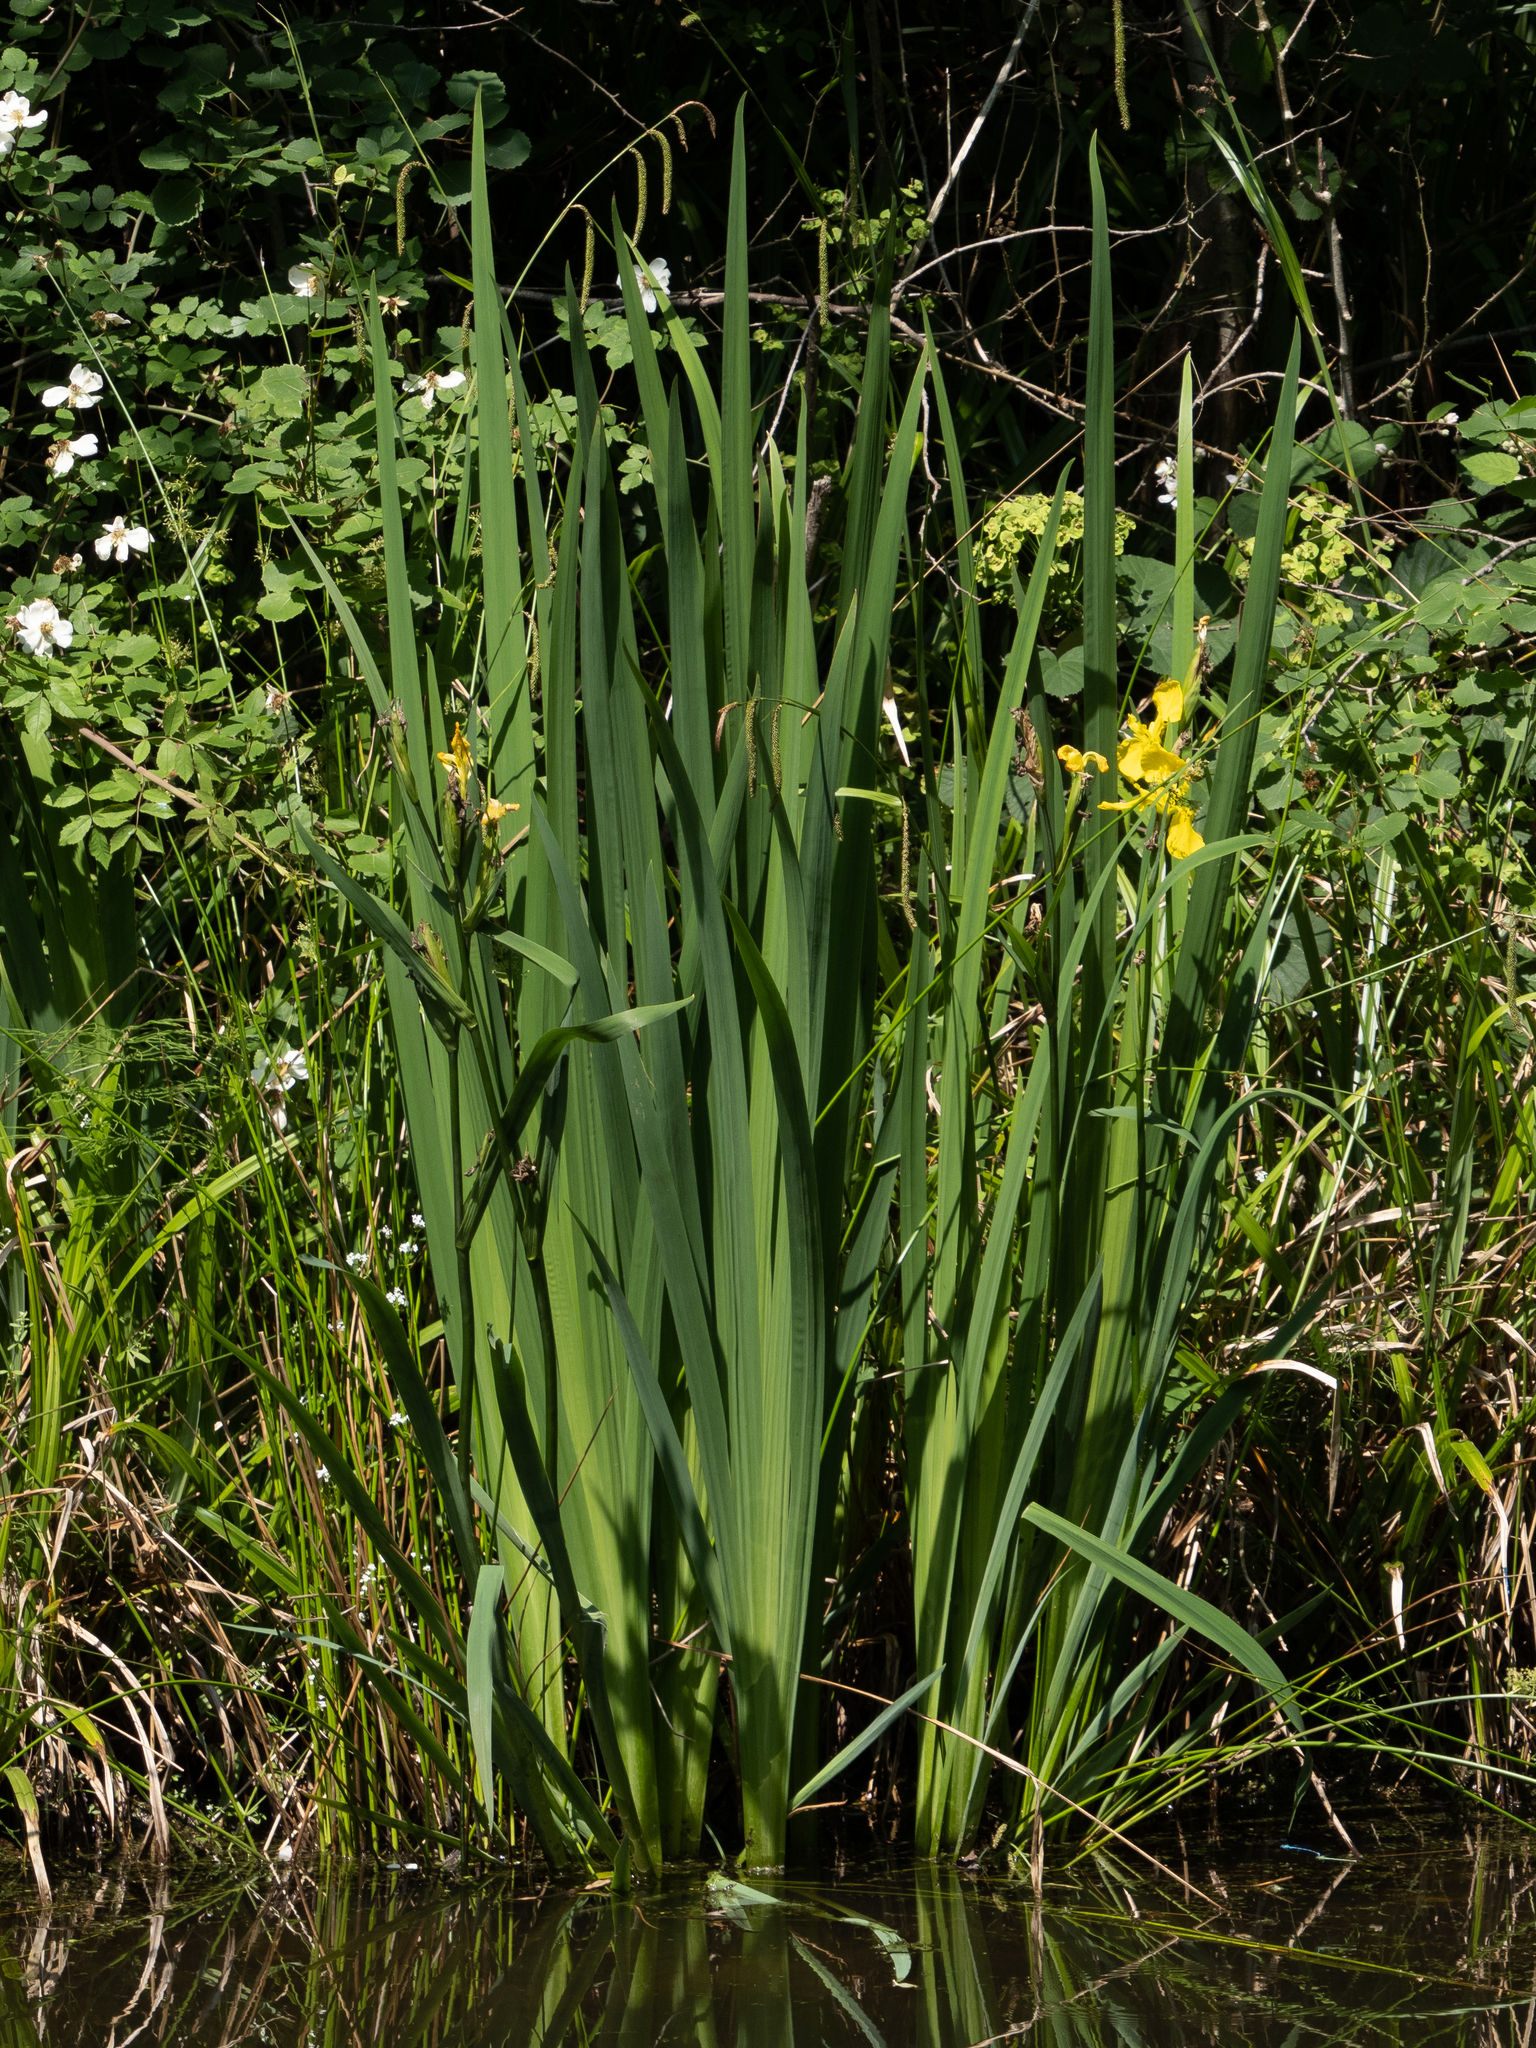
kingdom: Plantae
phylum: Tracheophyta
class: Liliopsida
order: Asparagales
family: Iridaceae
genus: Iris
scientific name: Iris pseudacorus
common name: Yellow flag
